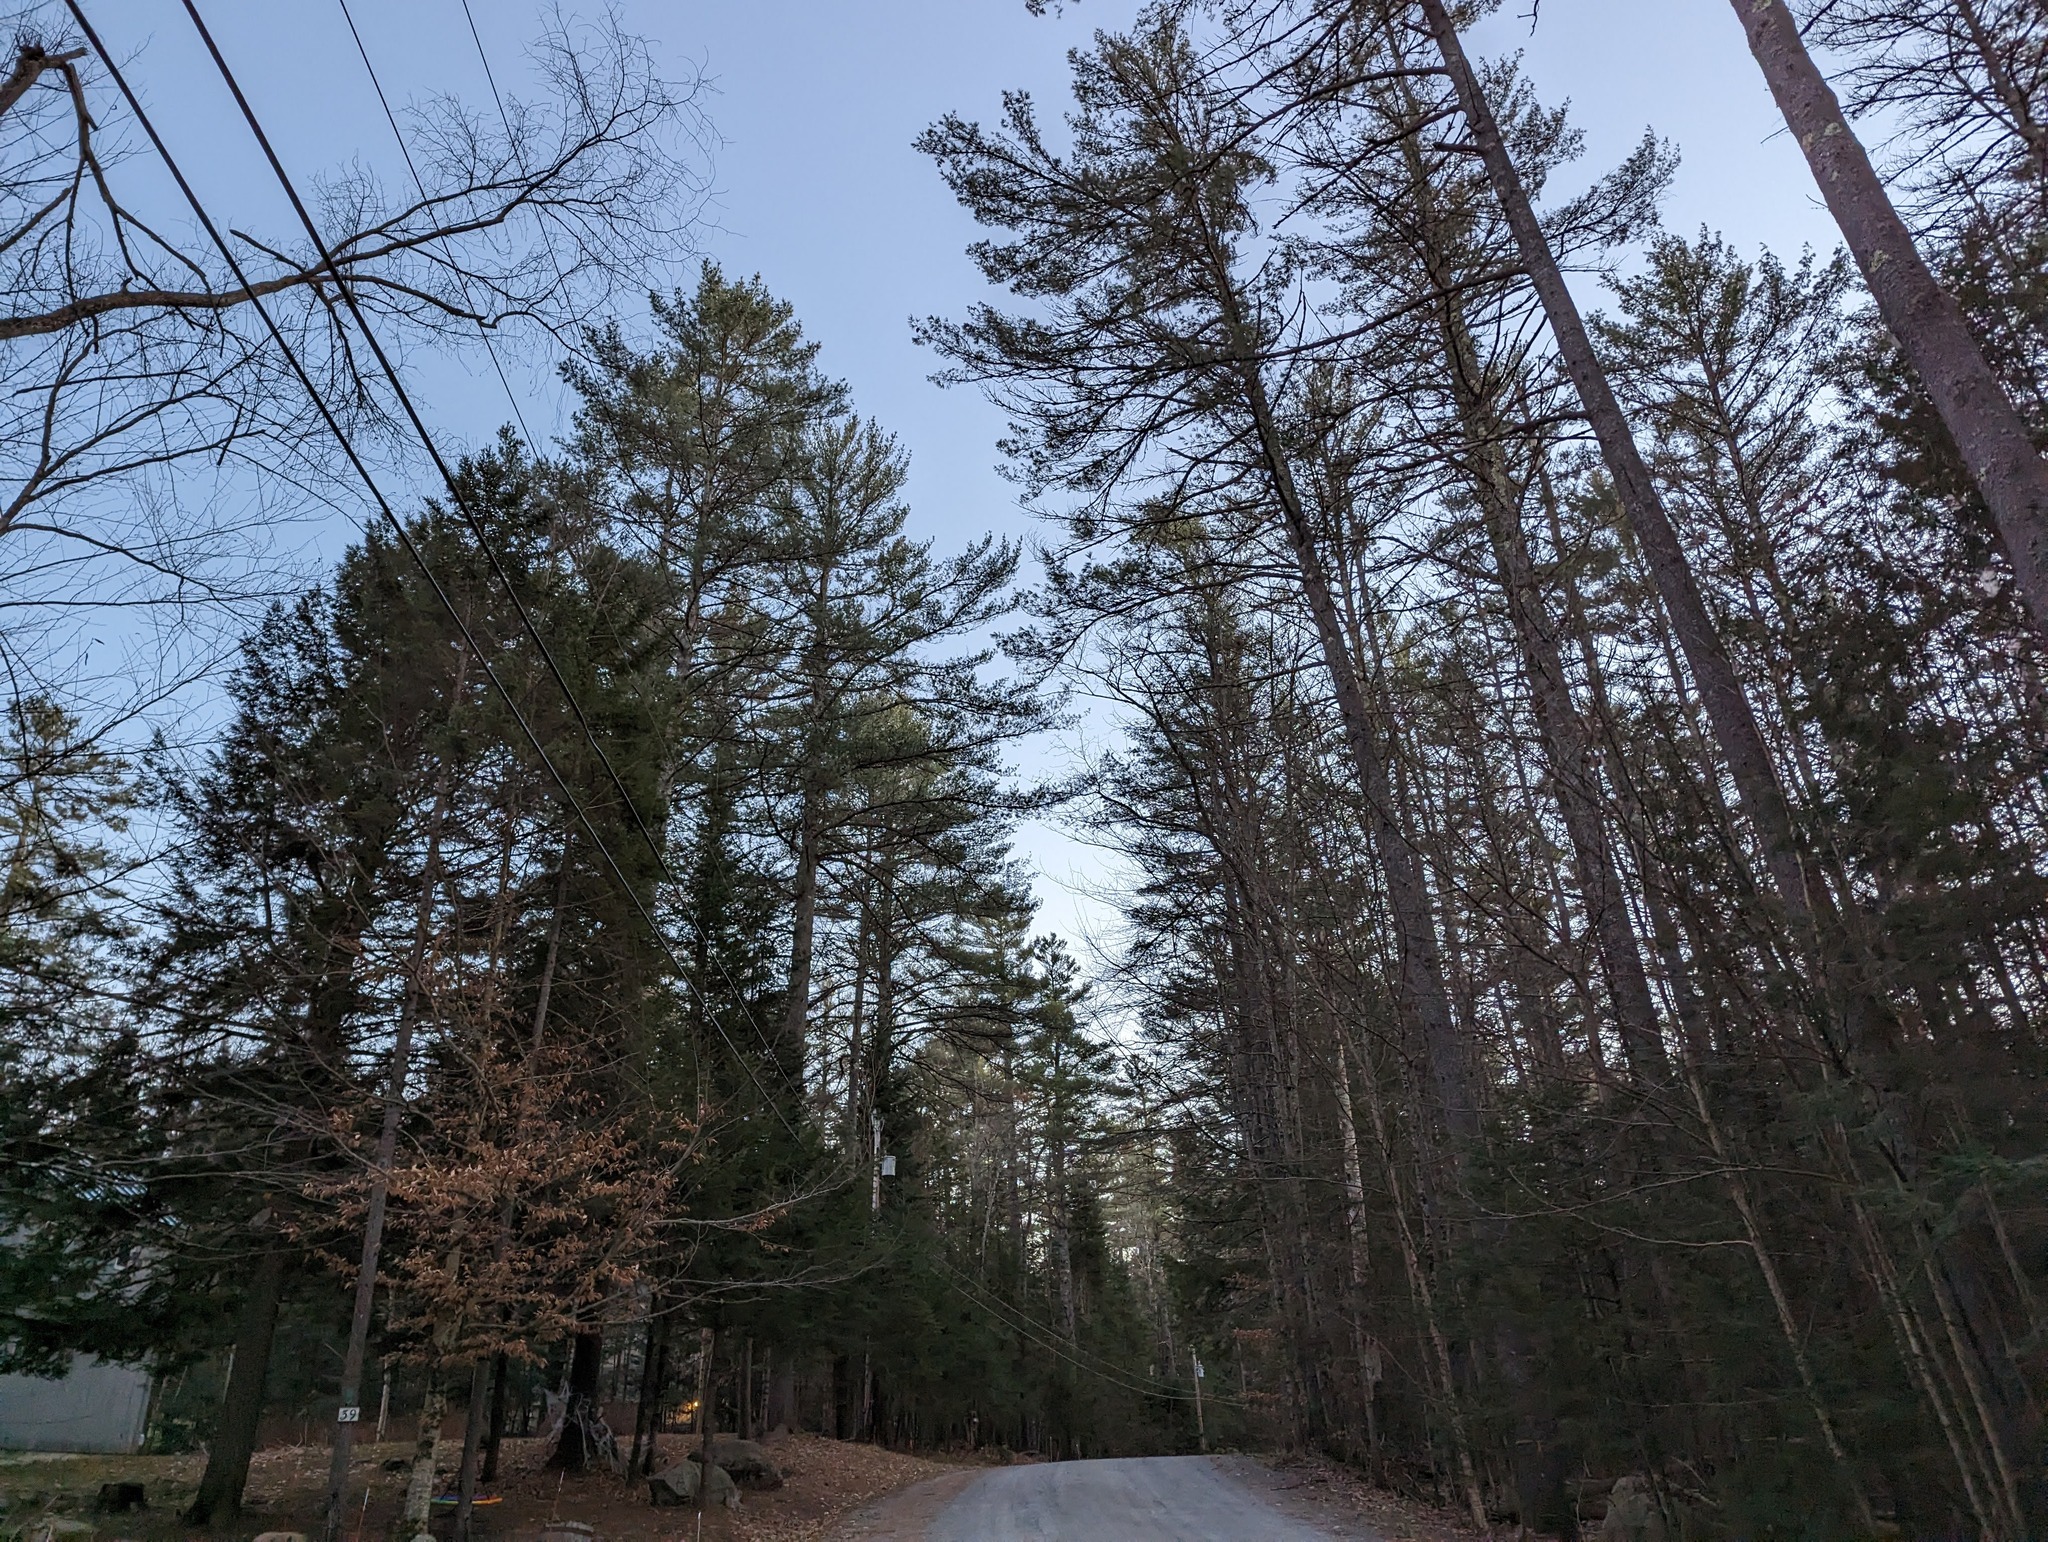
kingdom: Plantae
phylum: Tracheophyta
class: Pinopsida
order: Pinales
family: Pinaceae
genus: Pinus
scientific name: Pinus strobus
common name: Weymouth pine
